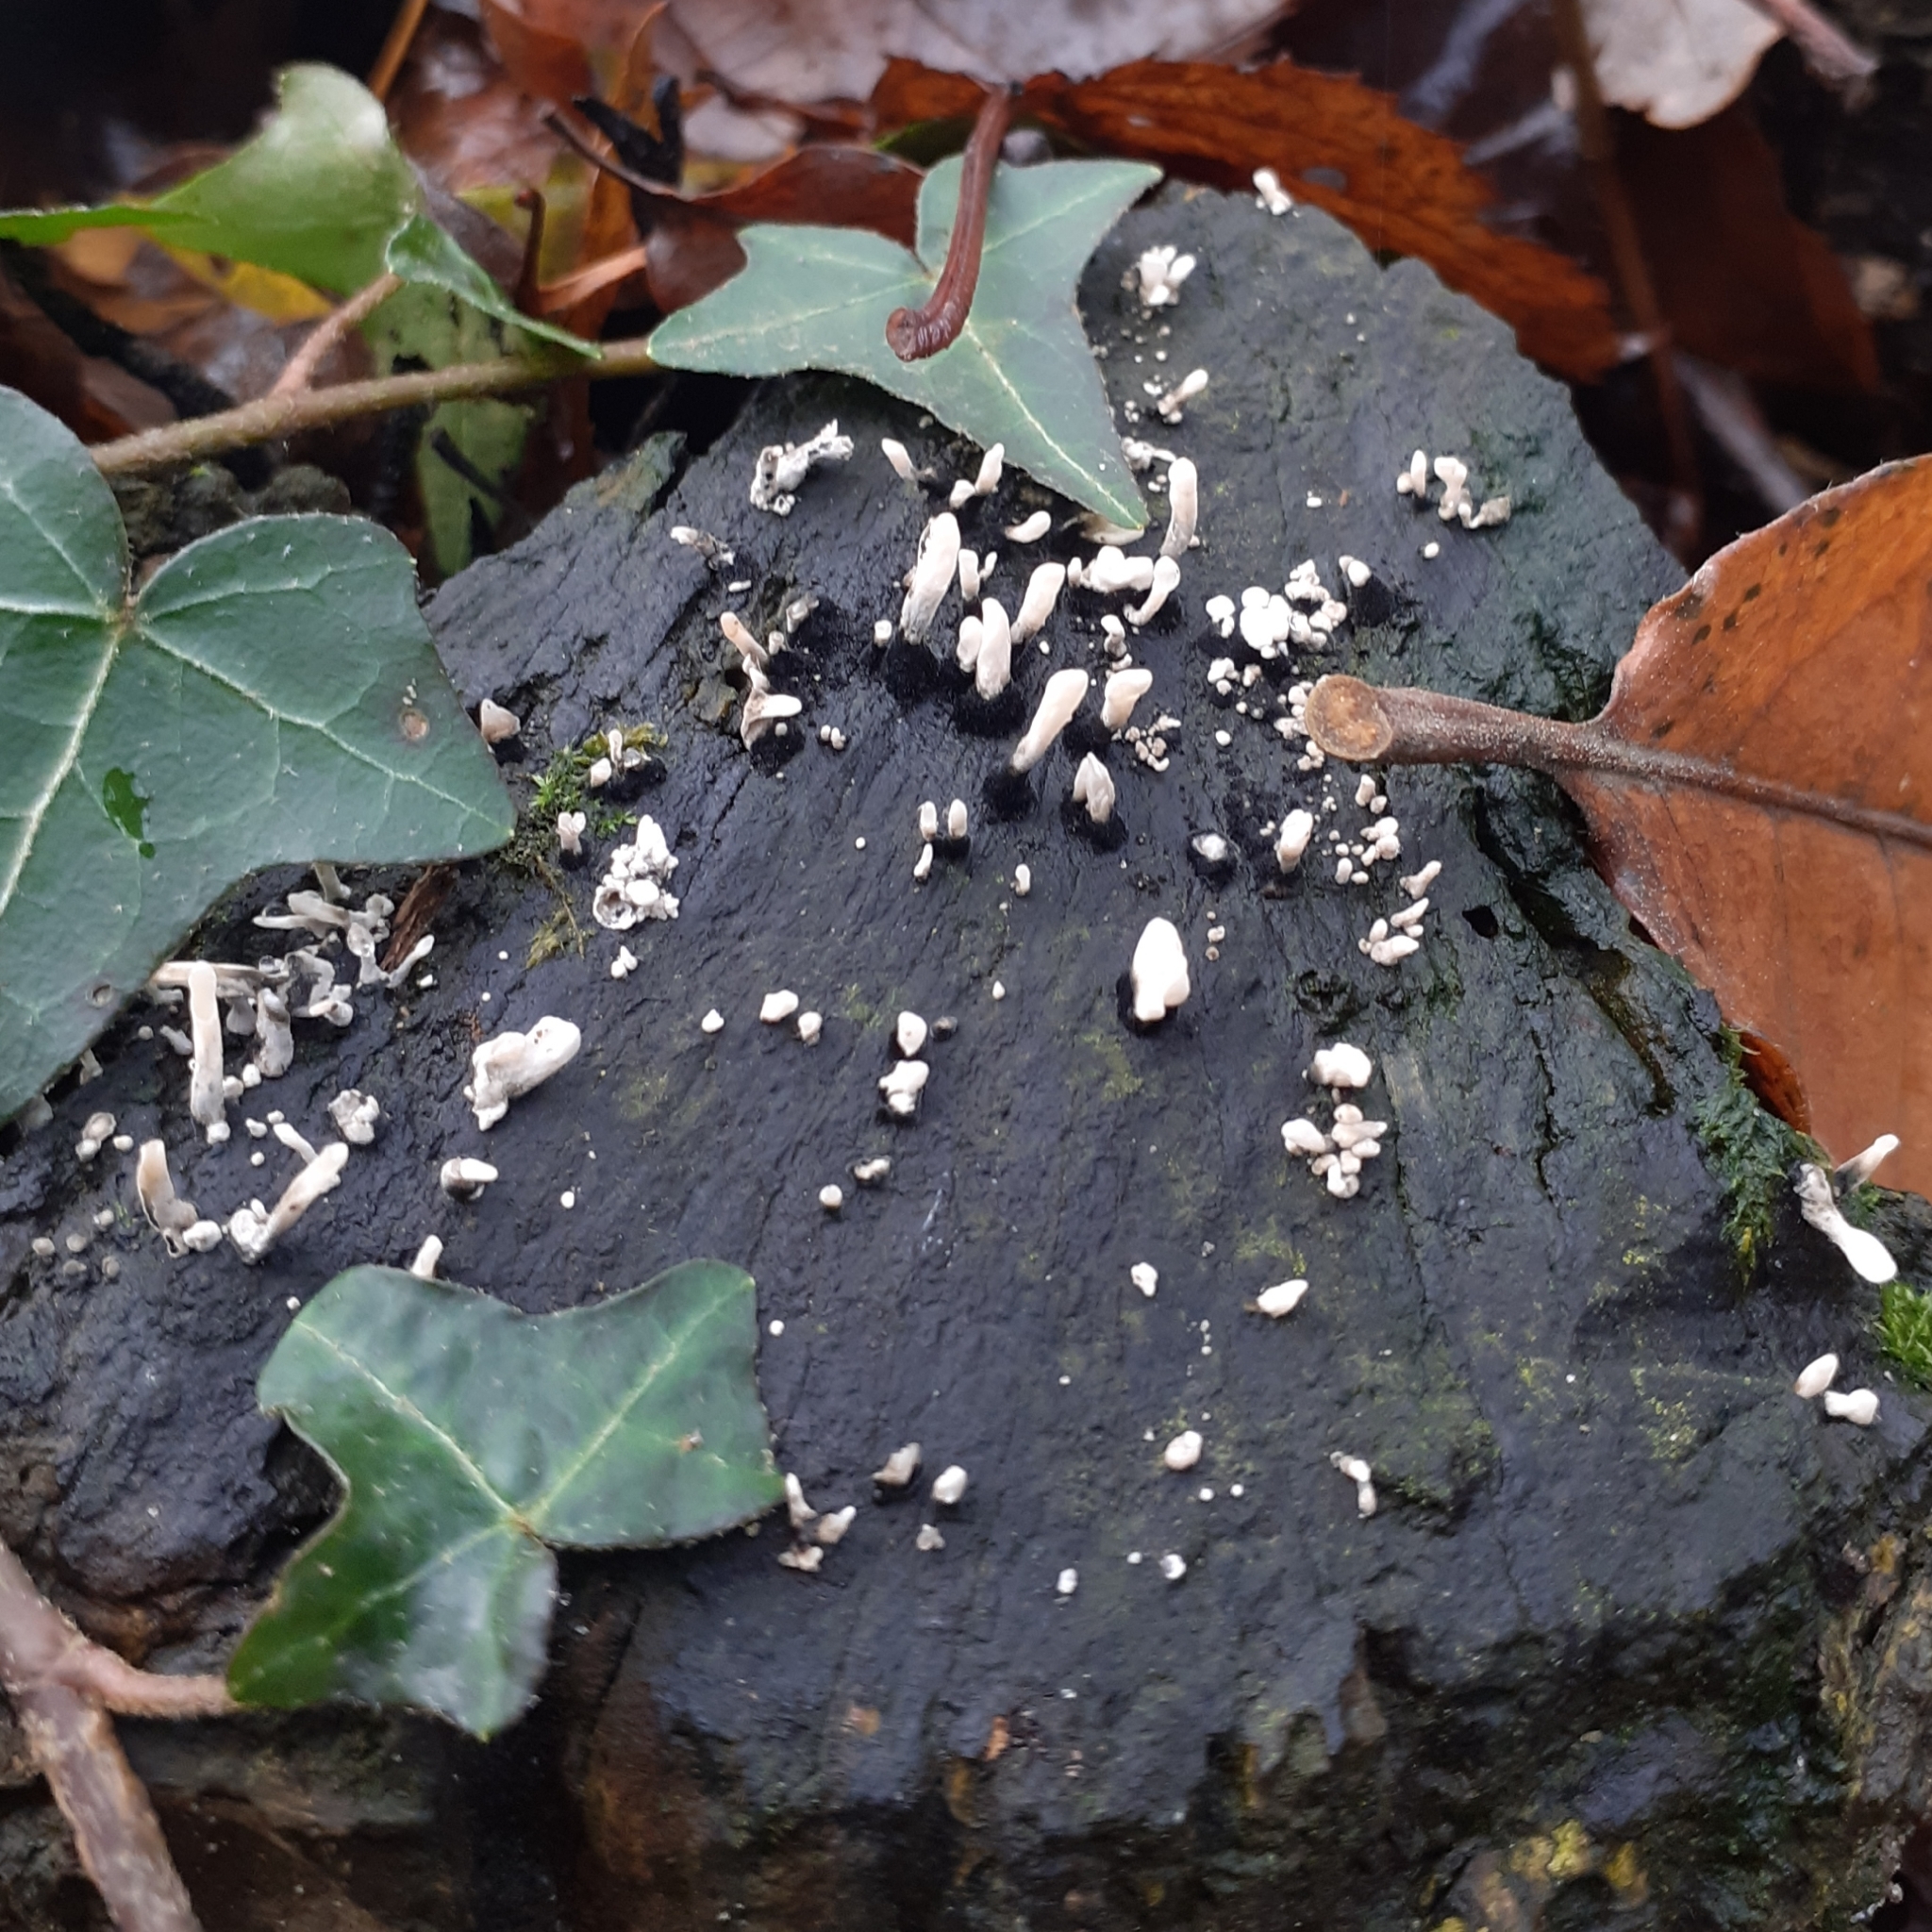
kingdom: Fungi
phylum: Ascomycota
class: Sordariomycetes
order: Xylariales
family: Xylariaceae
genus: Xylaria
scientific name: Xylaria hypoxylon
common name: Candle-snuff fungus
